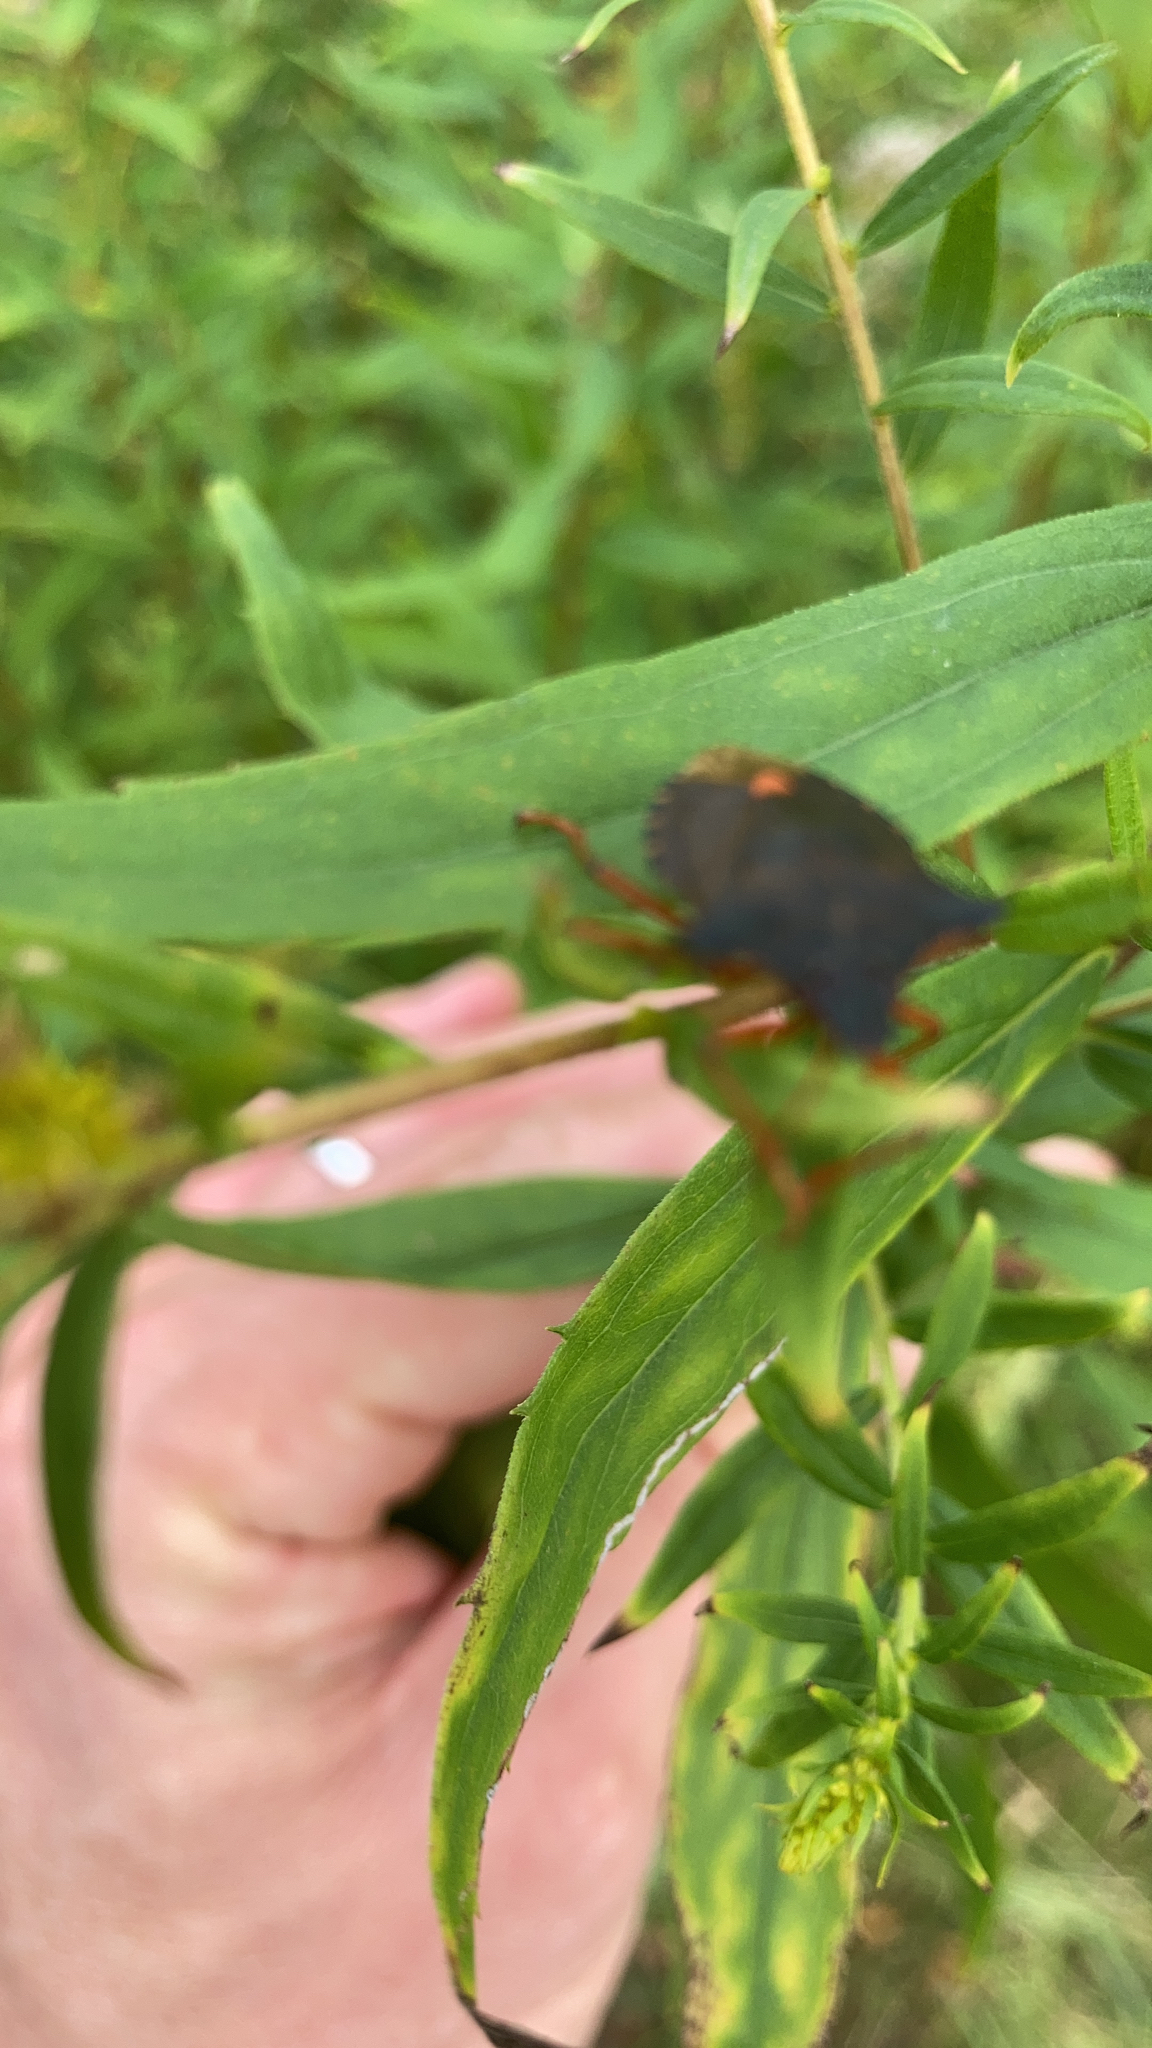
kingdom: Animalia
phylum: Arthropoda
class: Insecta
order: Hemiptera
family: Pentatomidae
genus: Pentatoma
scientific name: Pentatoma rufipes
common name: Forest bug
